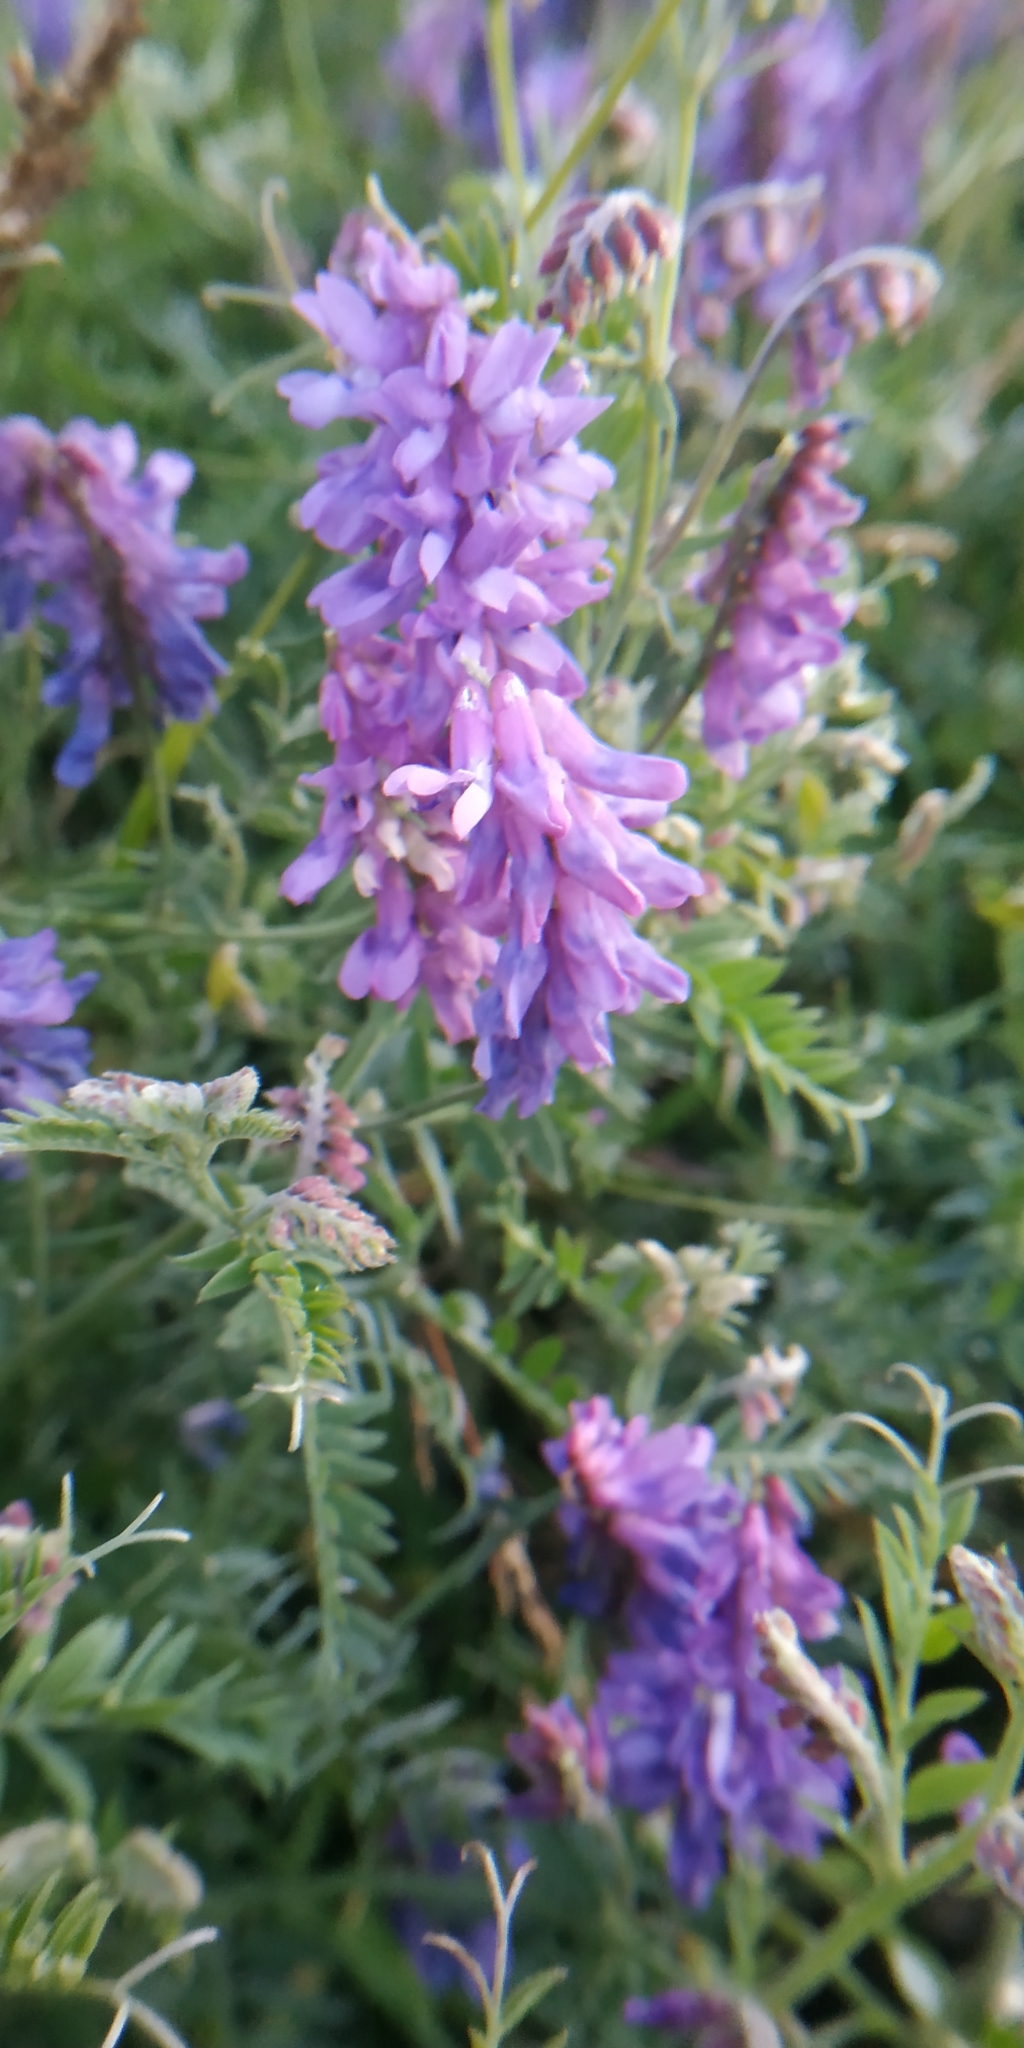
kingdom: Plantae
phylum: Tracheophyta
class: Magnoliopsida
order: Fabales
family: Fabaceae
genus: Vicia
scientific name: Vicia cracca
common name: Bird vetch
